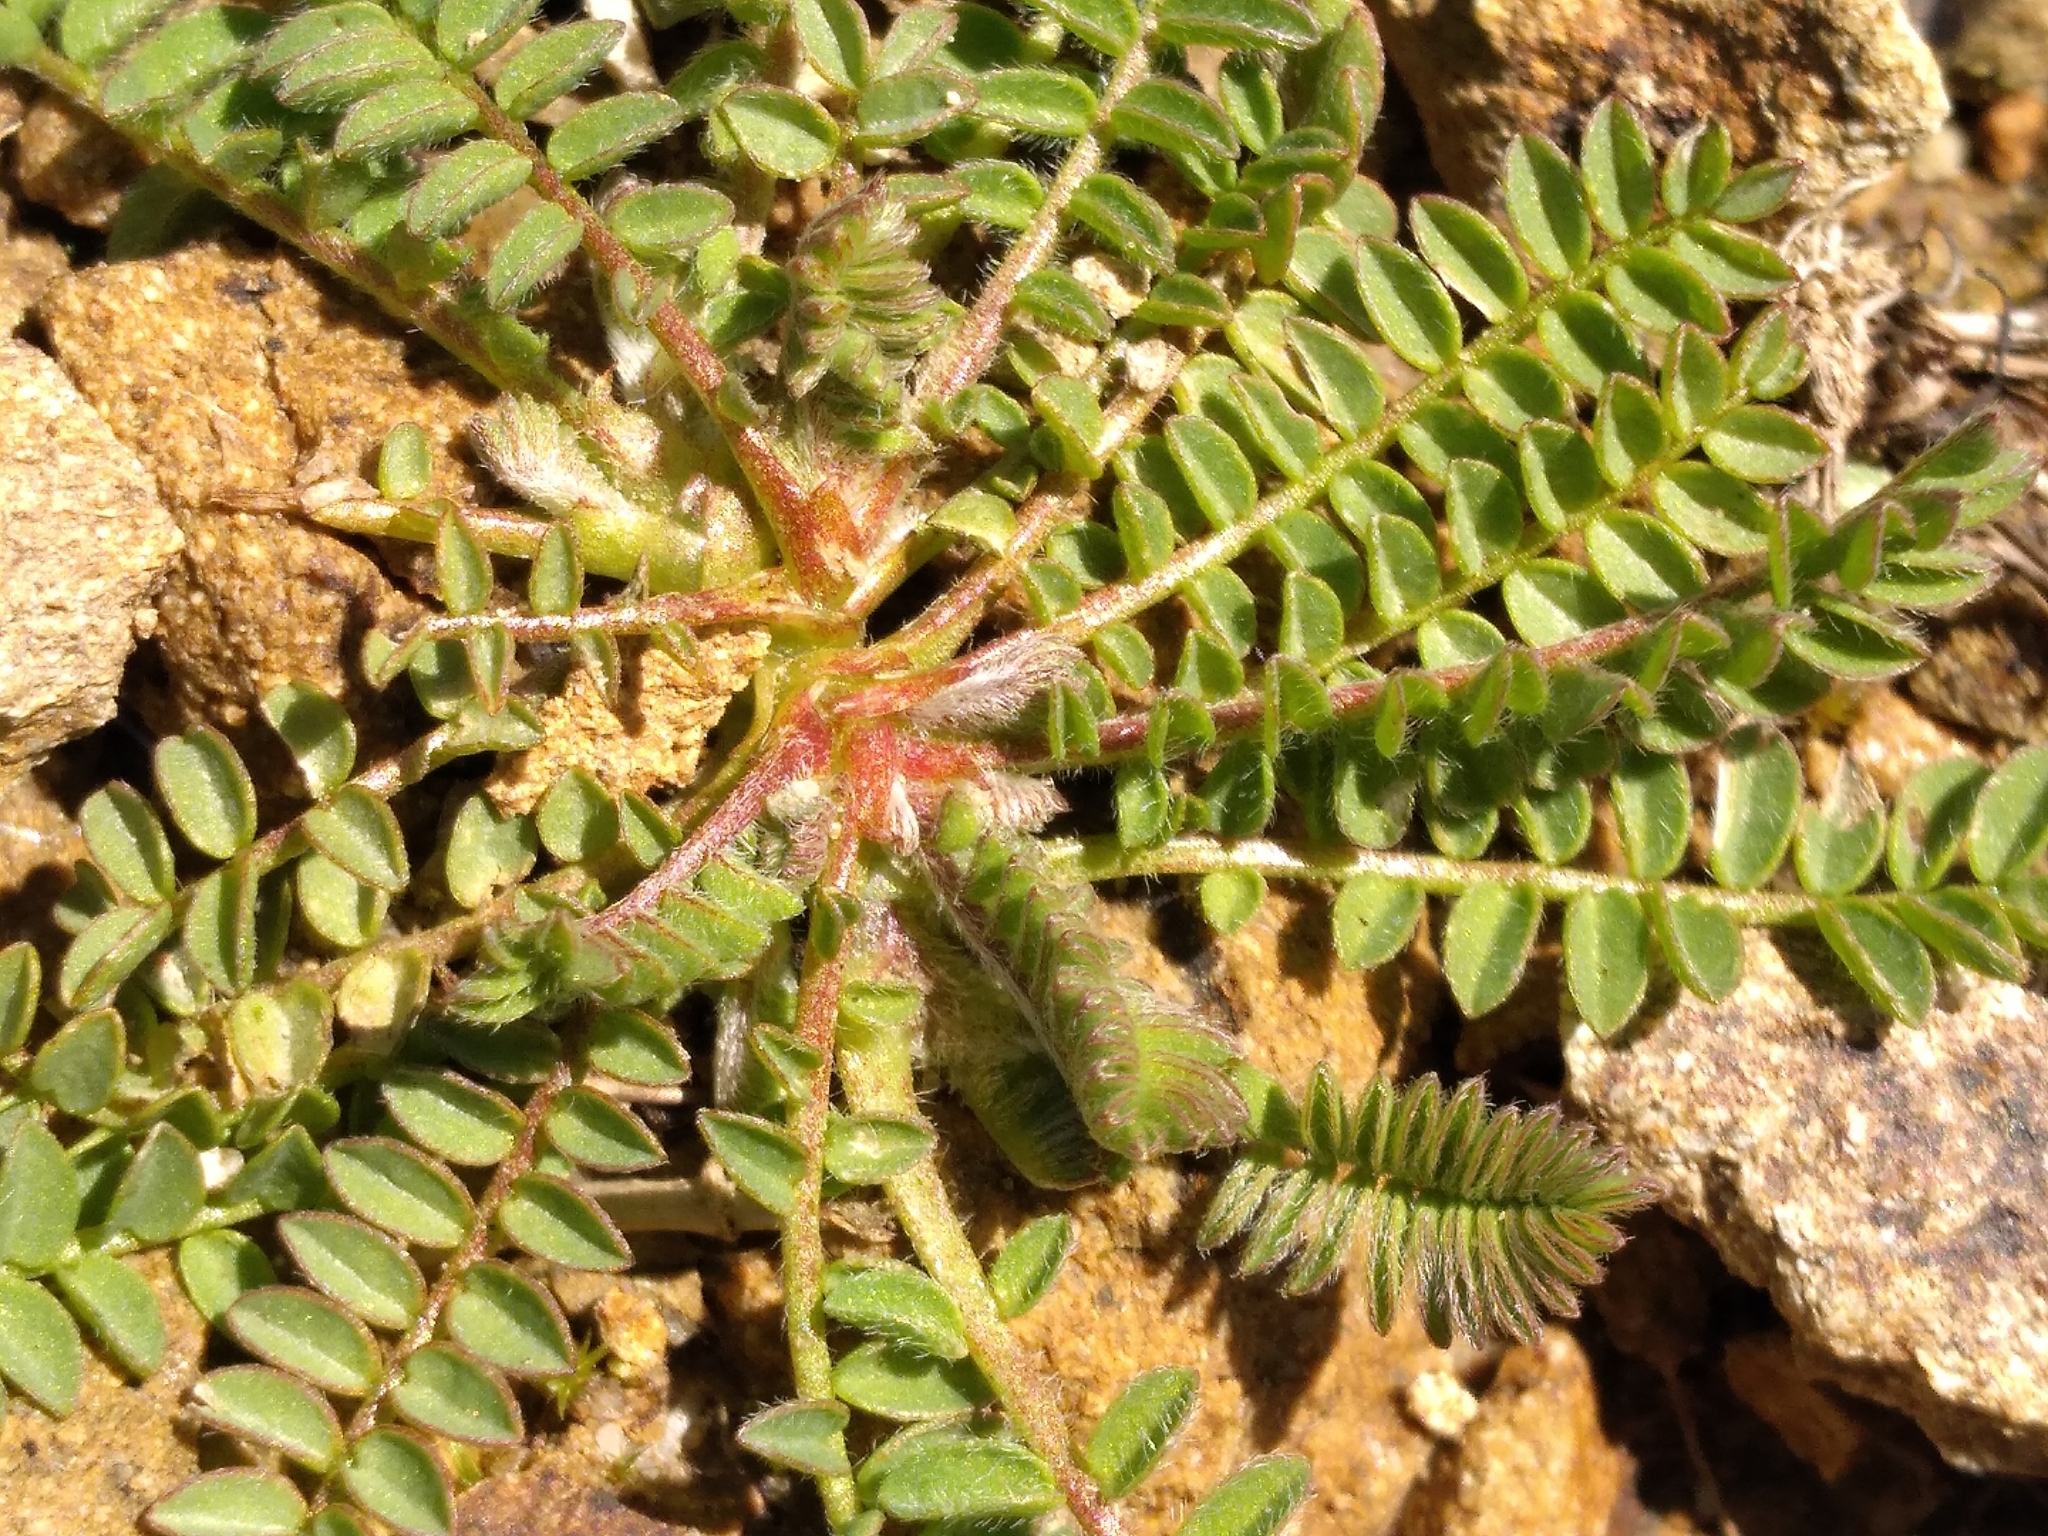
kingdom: Plantae
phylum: Tracheophyta
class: Magnoliopsida
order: Fabales
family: Fabaceae
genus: Ornithopus
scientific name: Ornithopus perpusillus
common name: Bird's-foot
